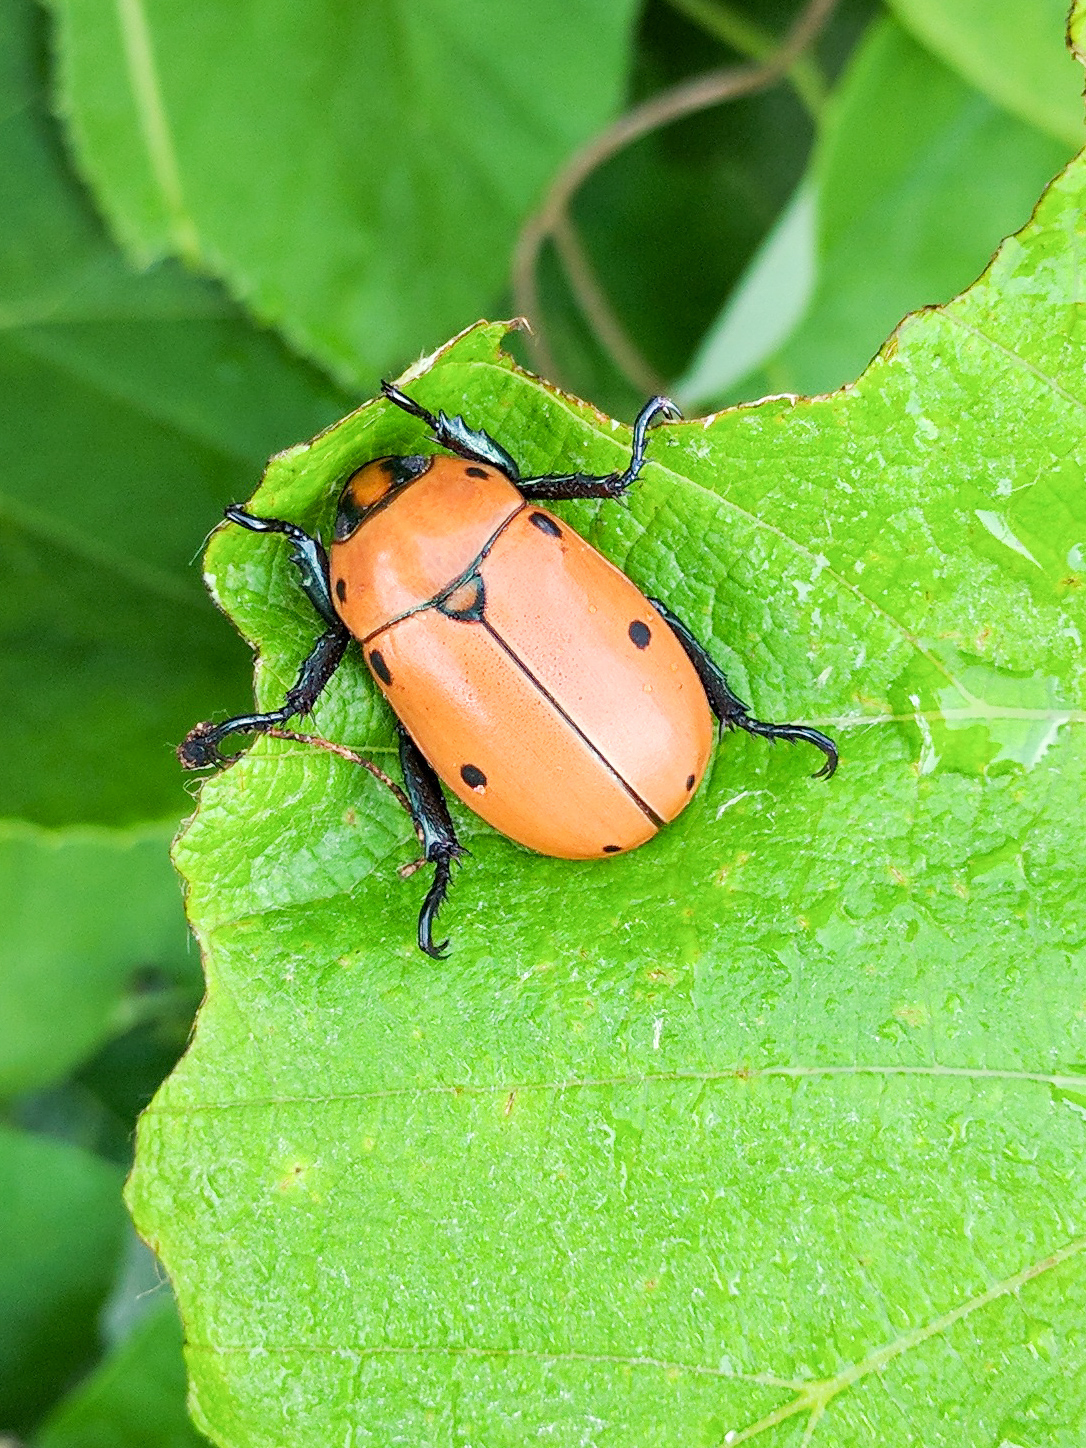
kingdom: Animalia
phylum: Arthropoda
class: Insecta
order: Coleoptera
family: Scarabaeidae
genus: Pelidnota
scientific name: Pelidnota punctata
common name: Grapevine beetle
